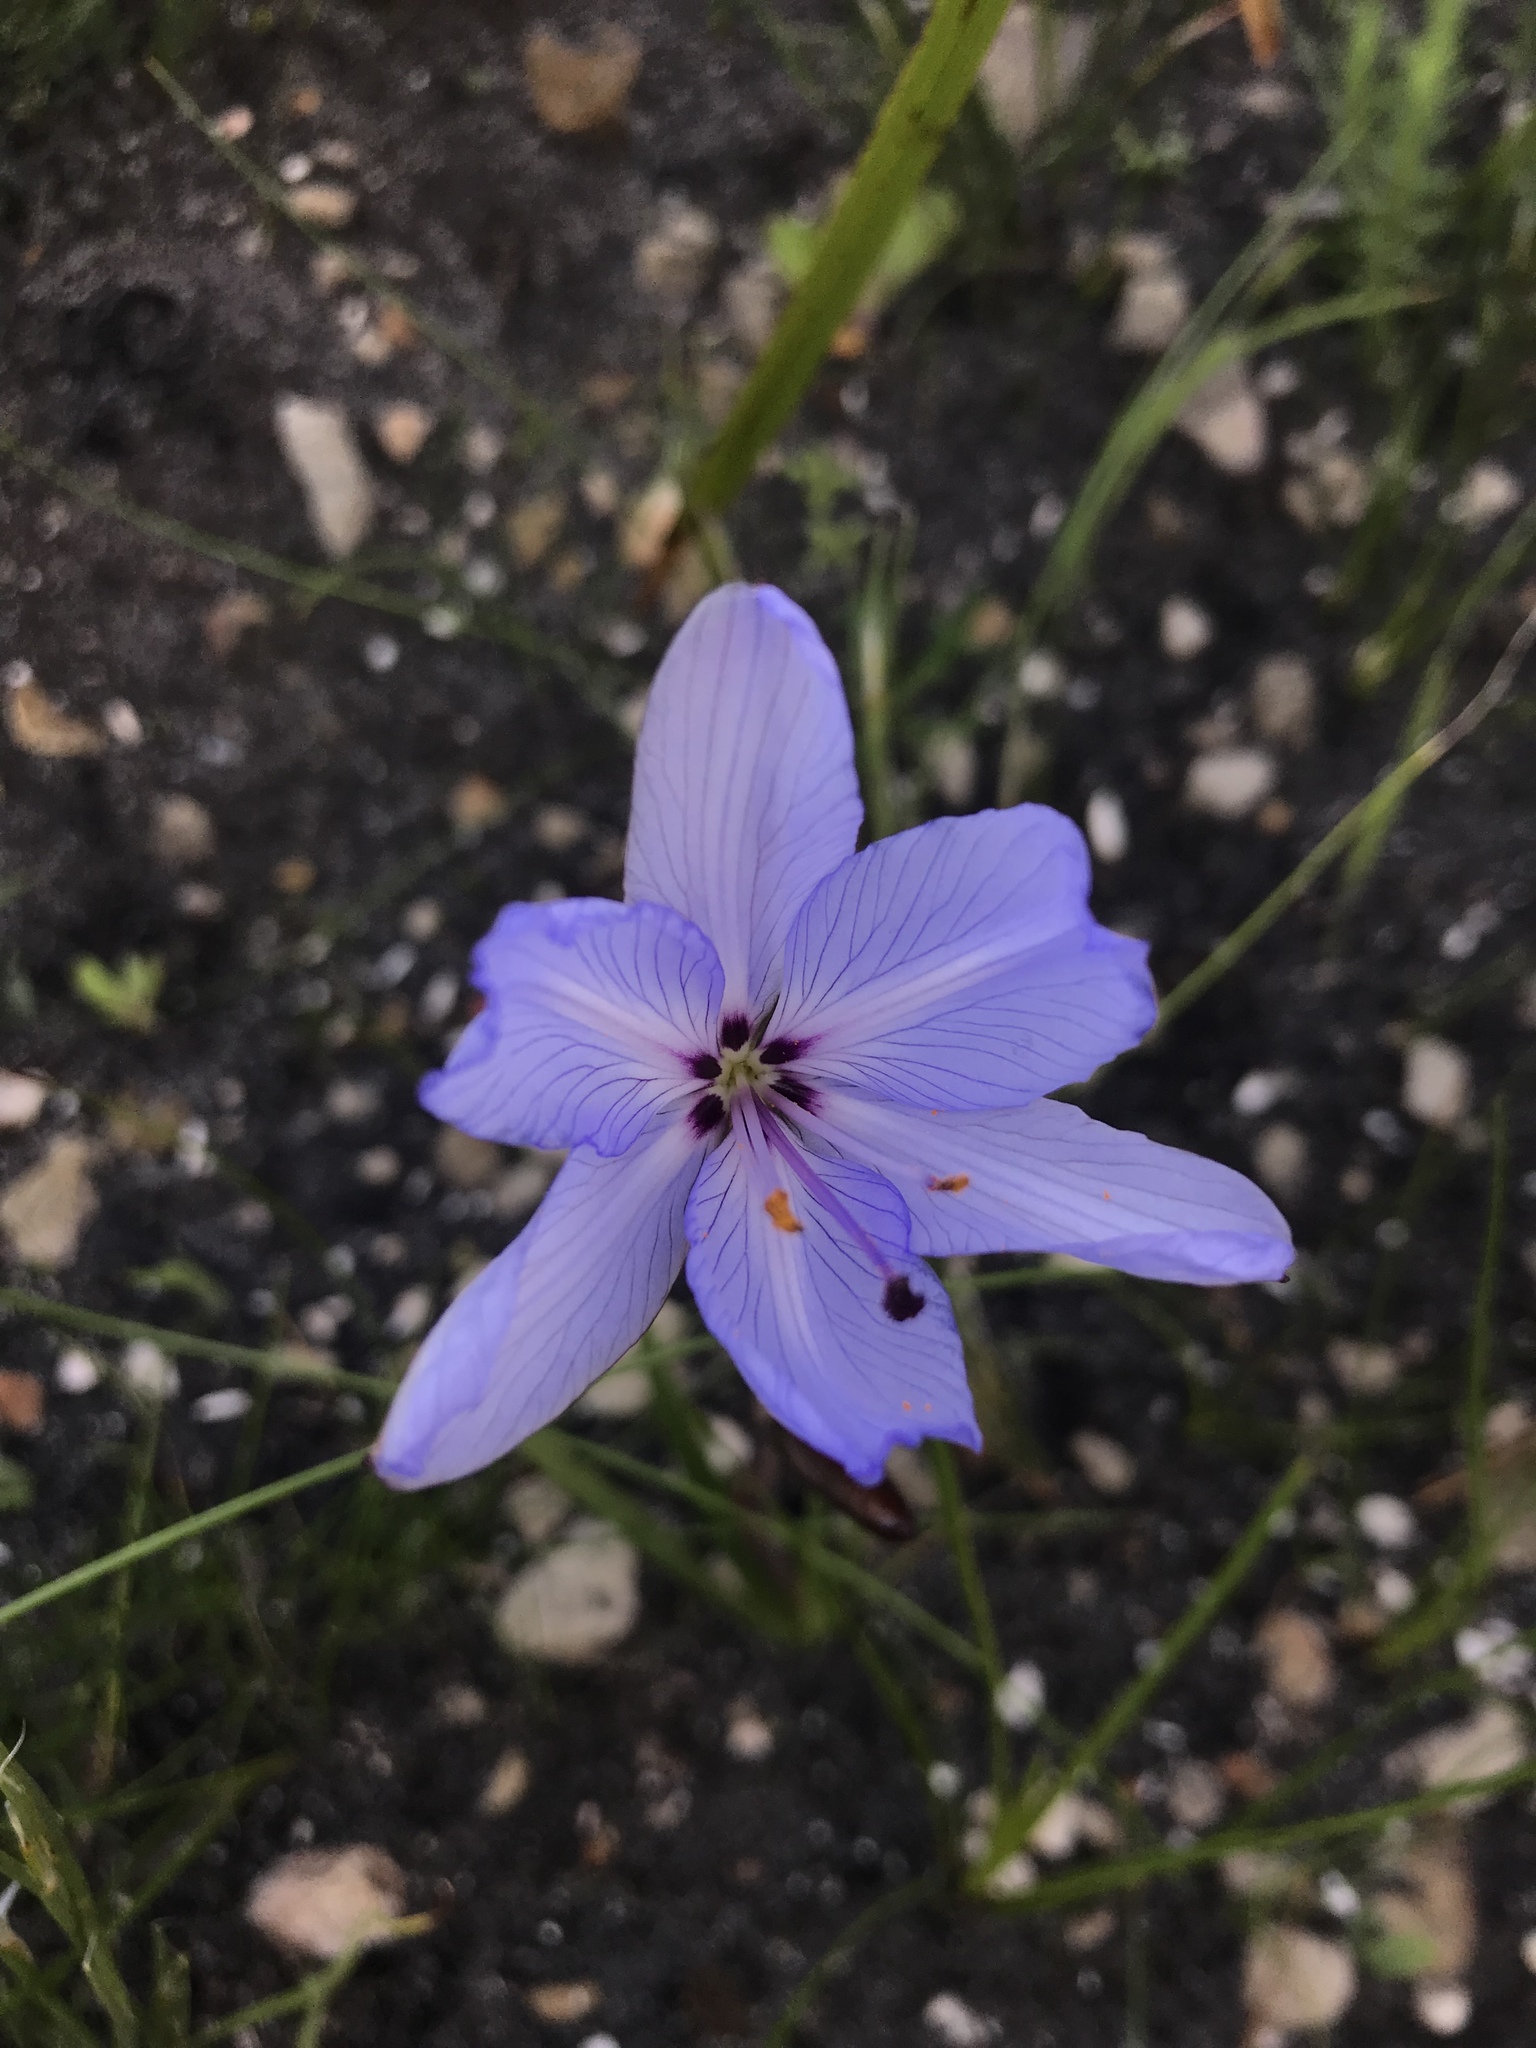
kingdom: Plantae
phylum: Tracheophyta
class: Liliopsida
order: Asparagales
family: Iridaceae
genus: Aristea
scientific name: Aristea spiralis
